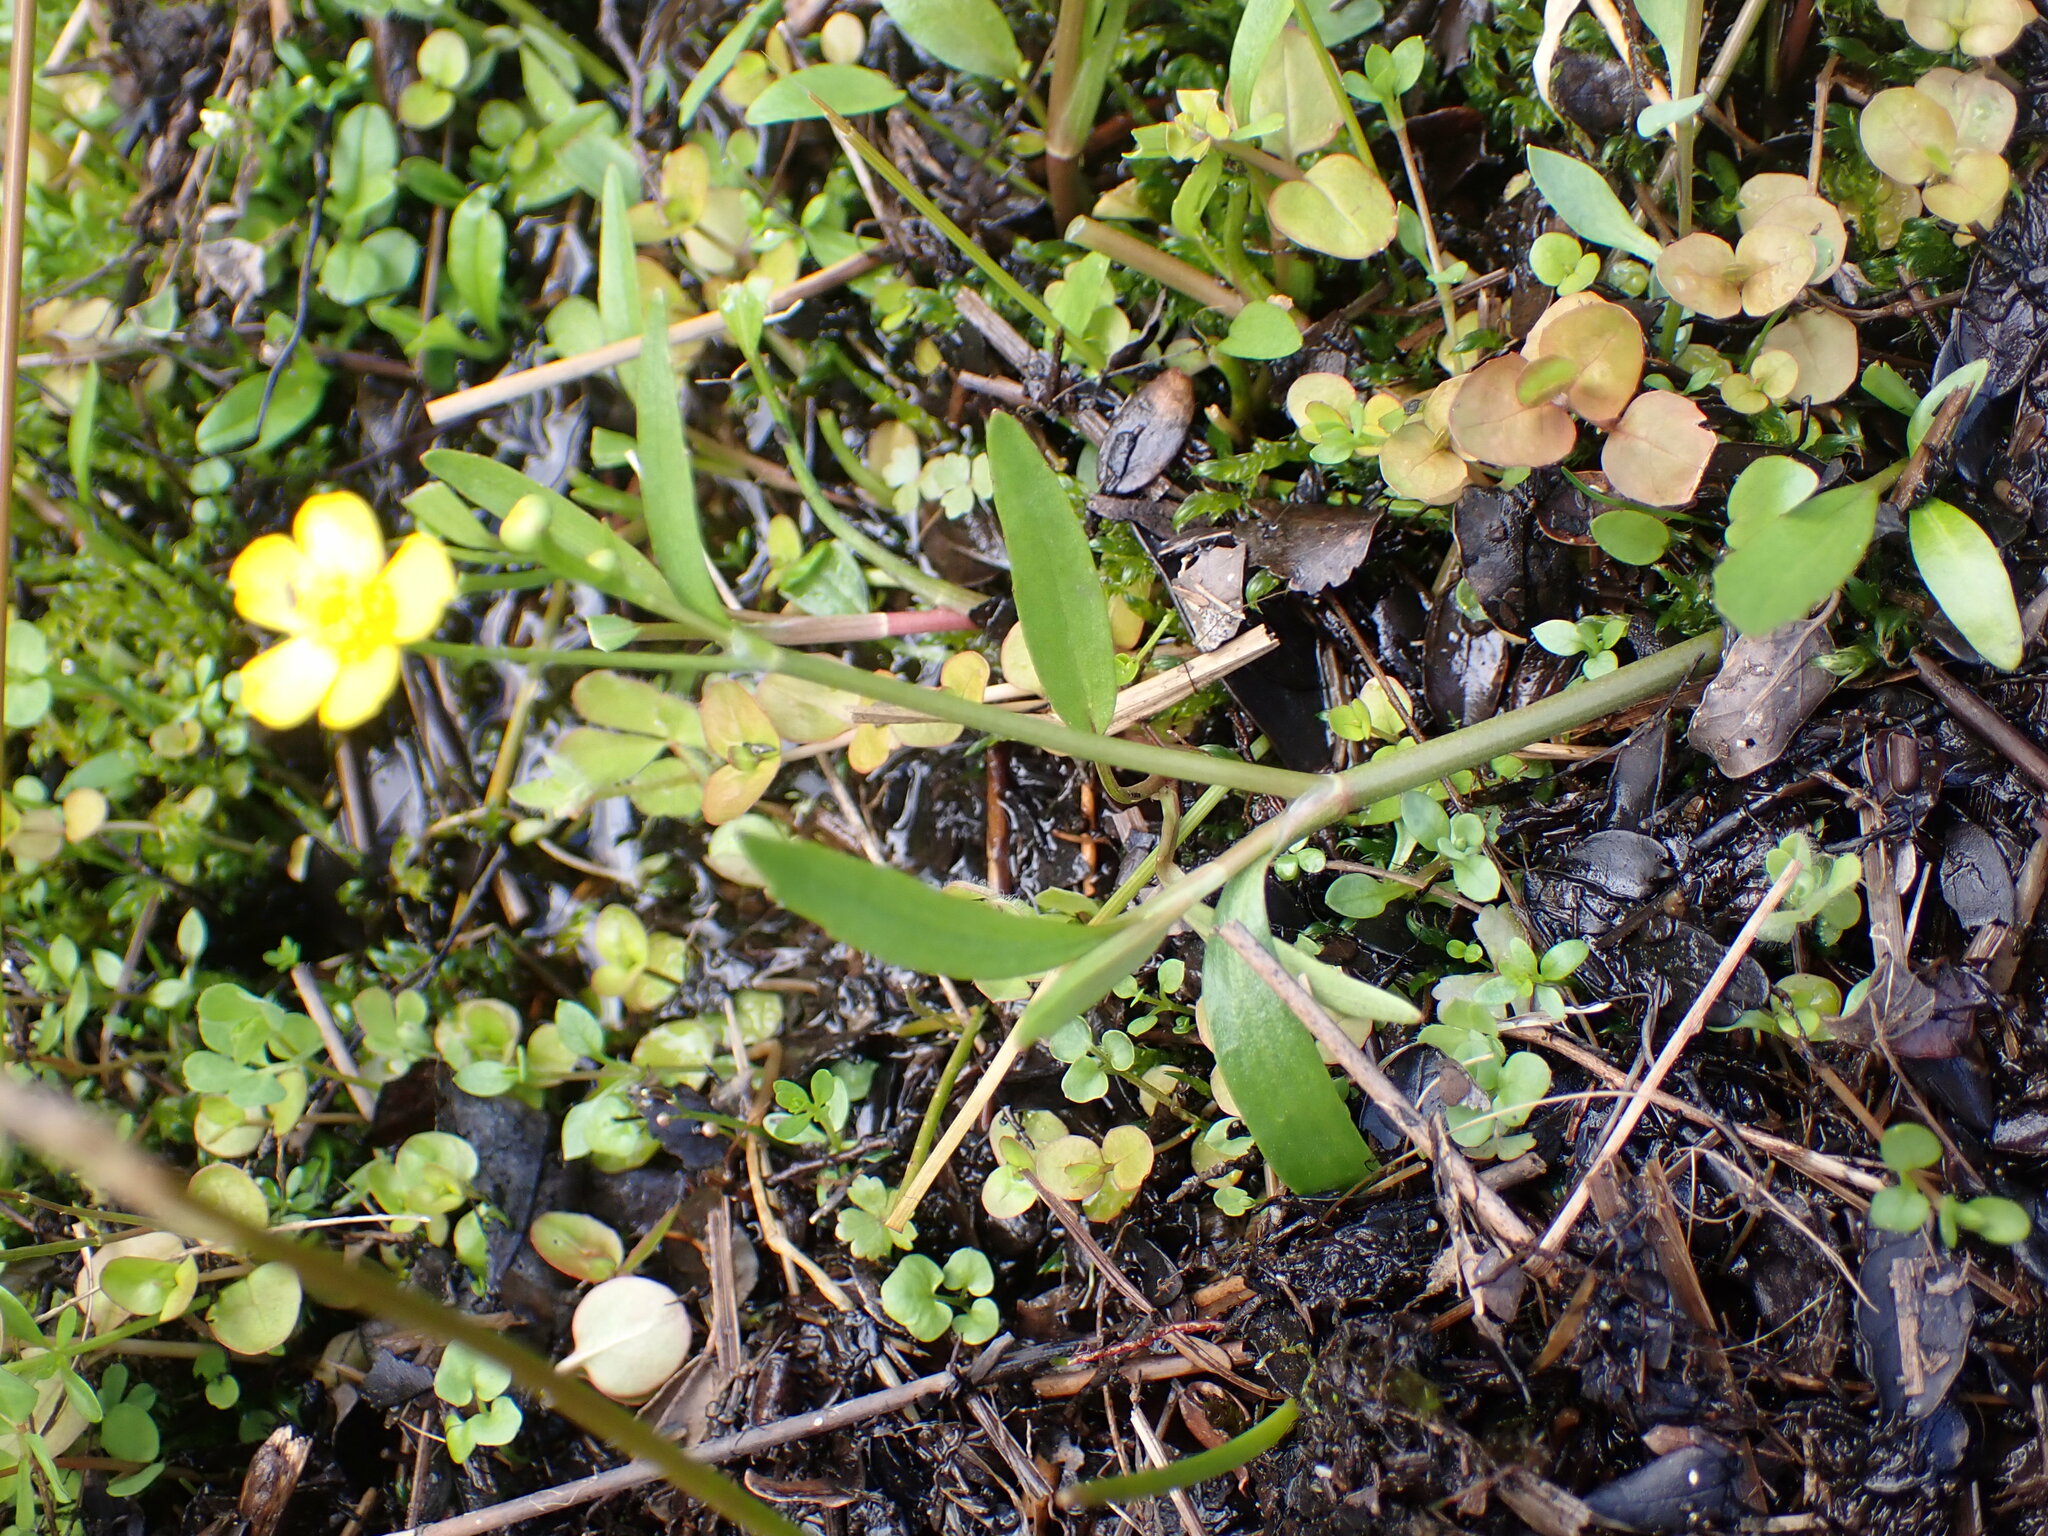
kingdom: Plantae
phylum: Tracheophyta
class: Magnoliopsida
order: Ranunculales
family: Ranunculaceae
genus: Ranunculus
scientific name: Ranunculus flammula
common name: Lesser spearwort
